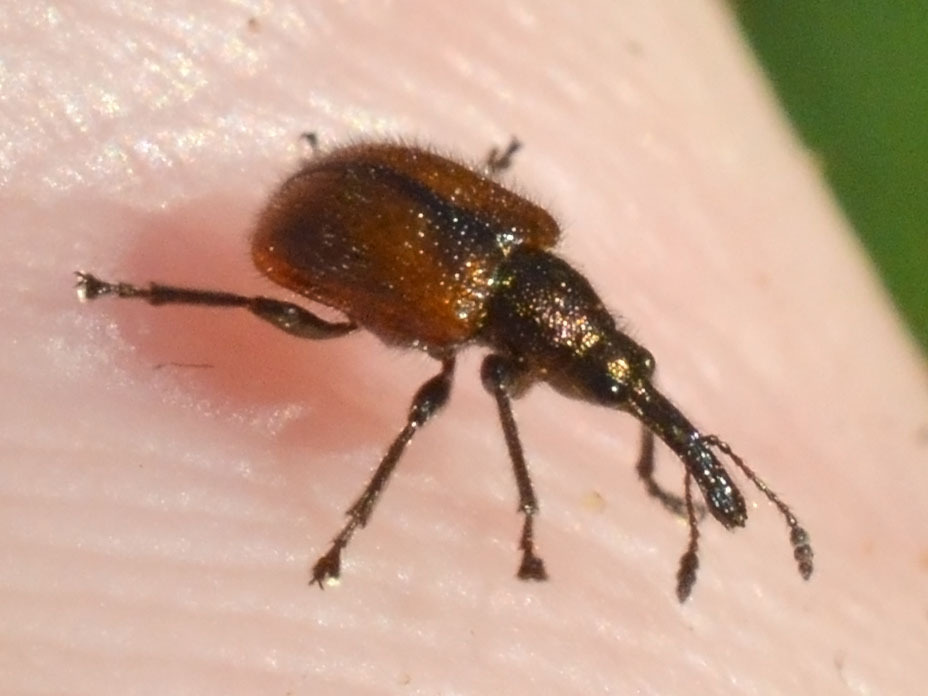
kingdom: Animalia
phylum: Arthropoda
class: Insecta
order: Coleoptera
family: Rhynchitidae
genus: Tatianaerhynchites
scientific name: Tatianaerhynchites aequatus
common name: Apple fruit rhynchites
